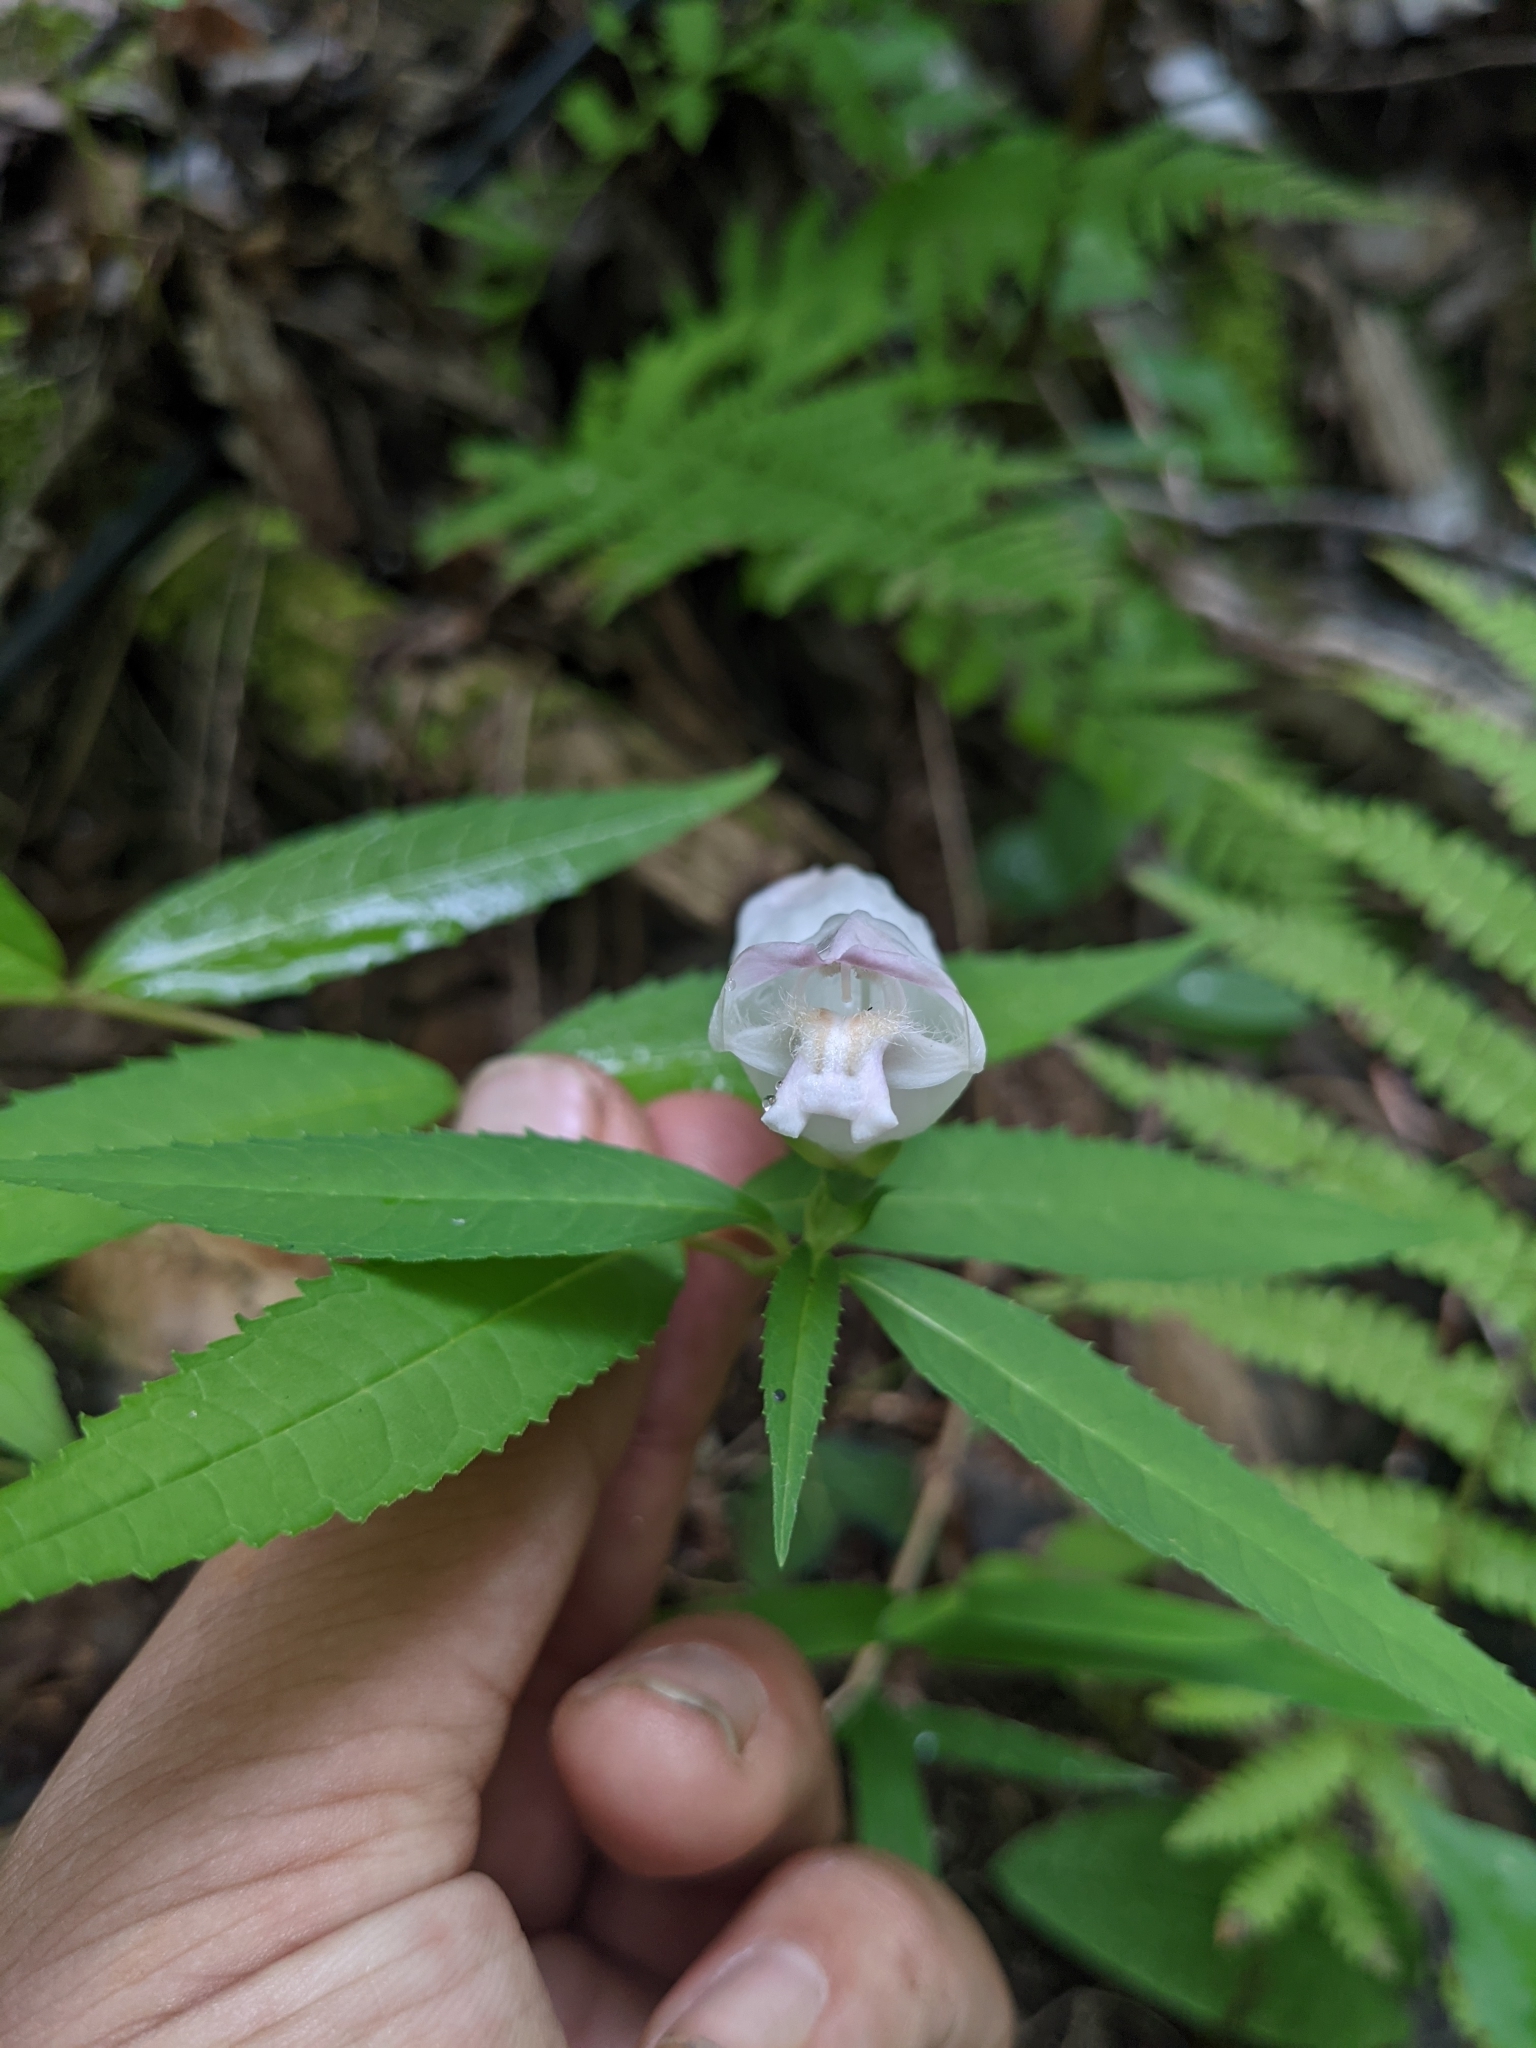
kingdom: Plantae
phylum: Tracheophyta
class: Magnoliopsida
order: Lamiales
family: Plantaginaceae
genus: Chelone
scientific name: Chelone glabra
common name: Snakehead
